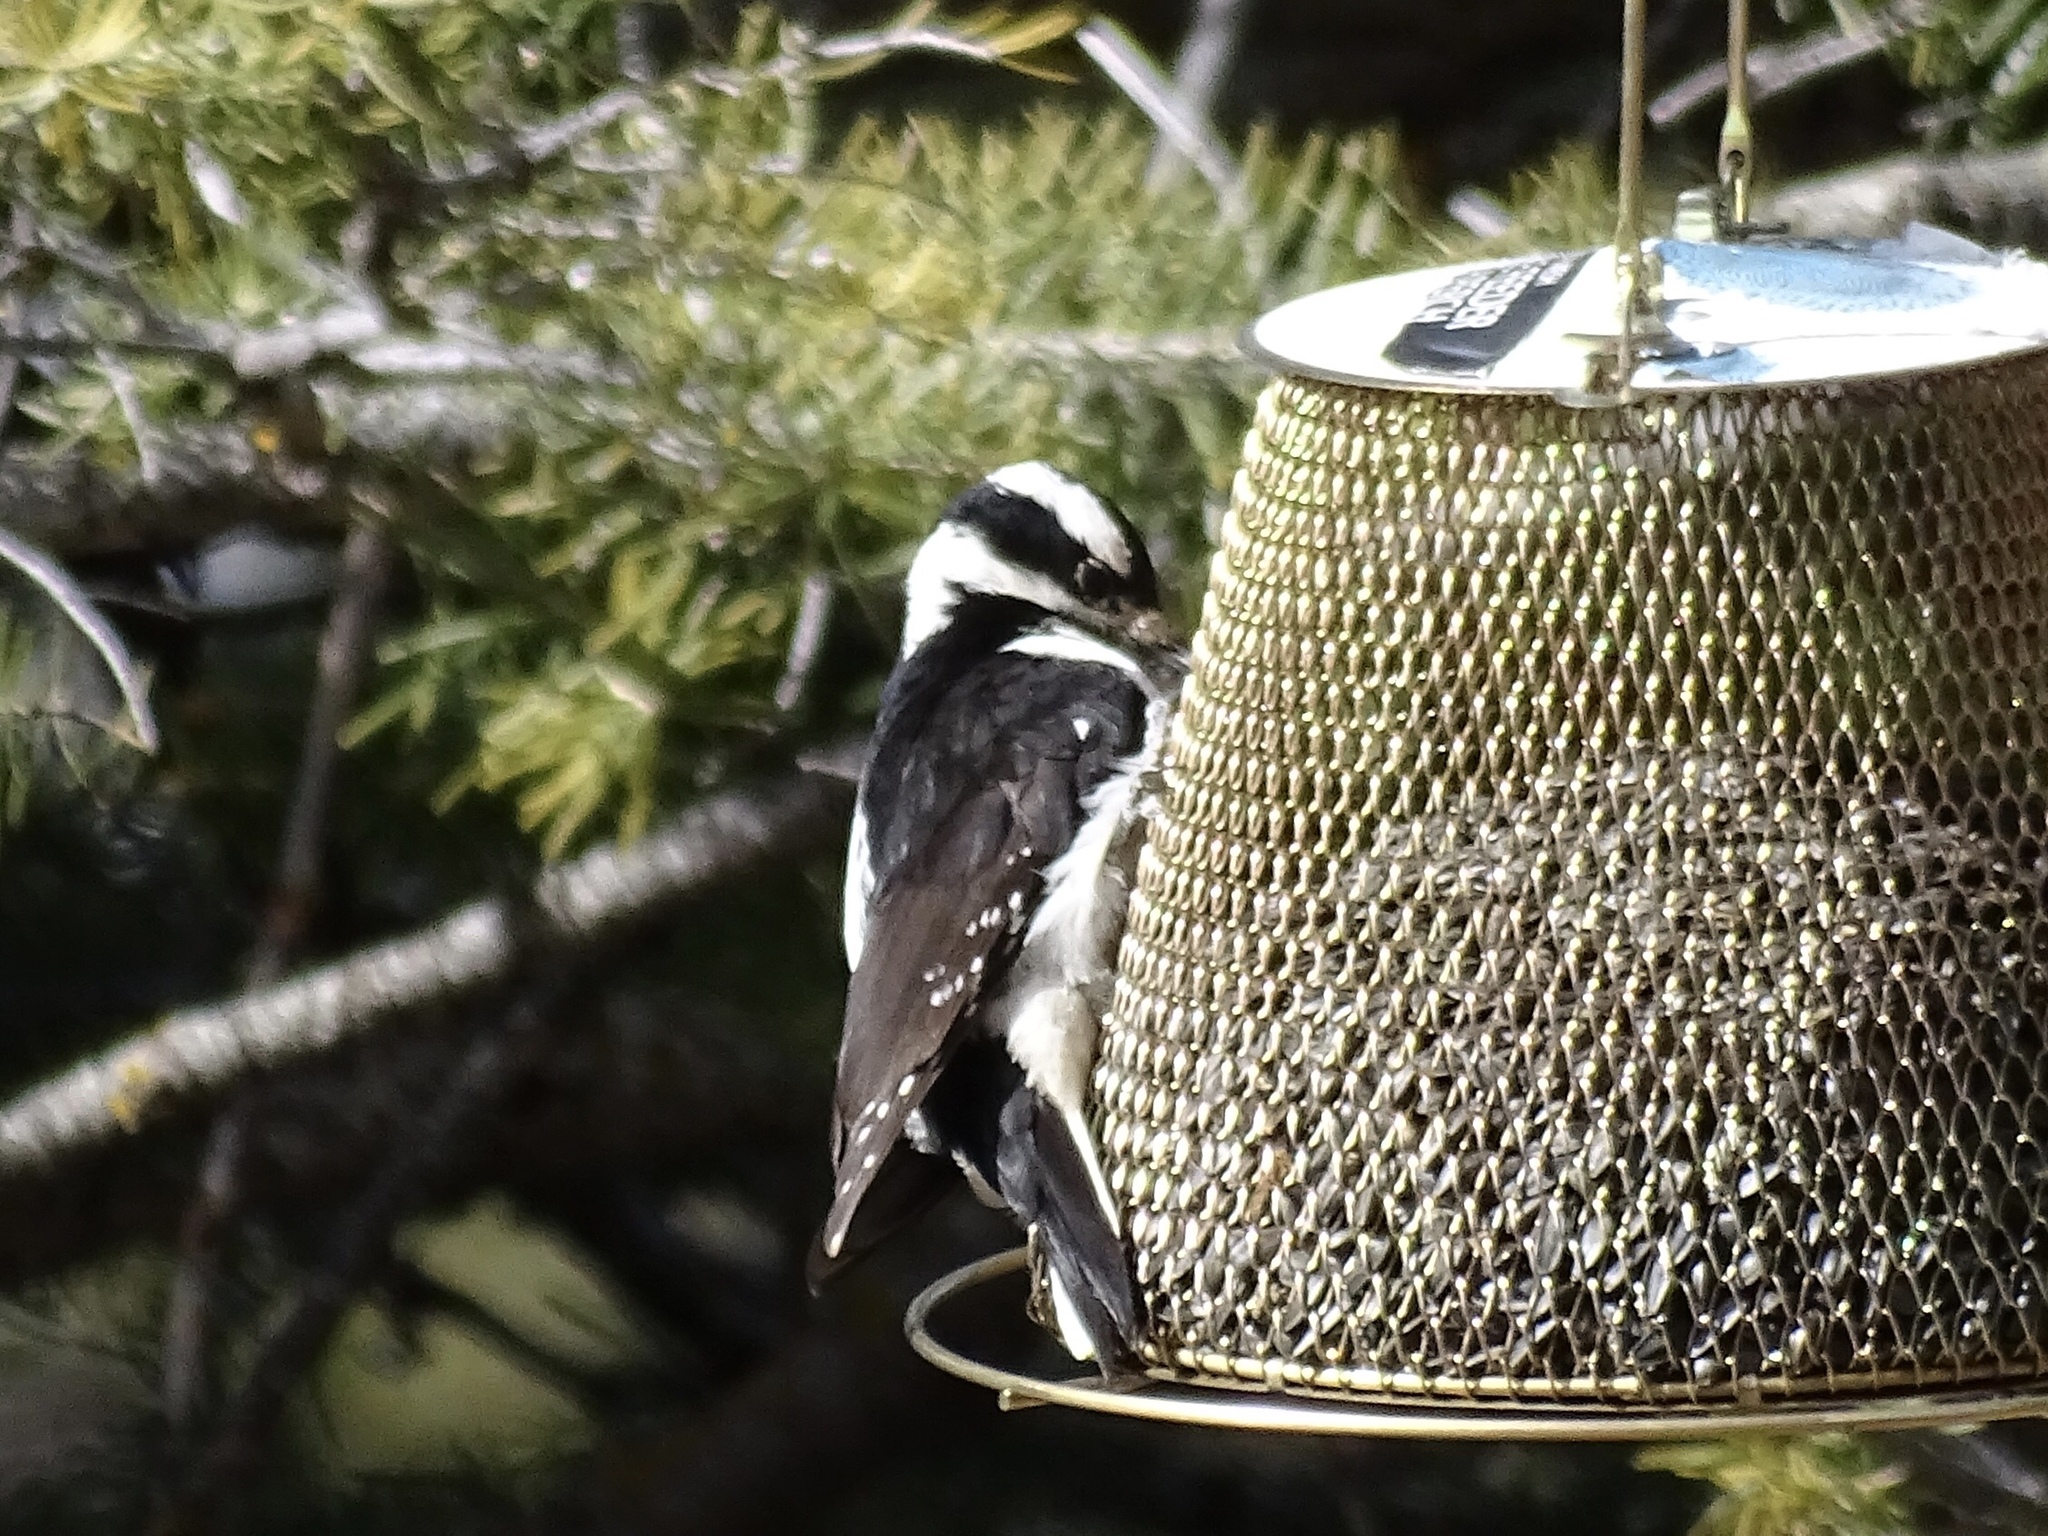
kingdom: Animalia
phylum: Chordata
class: Aves
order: Piciformes
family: Picidae
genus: Leuconotopicus
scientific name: Leuconotopicus villosus
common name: Hairy woodpecker
